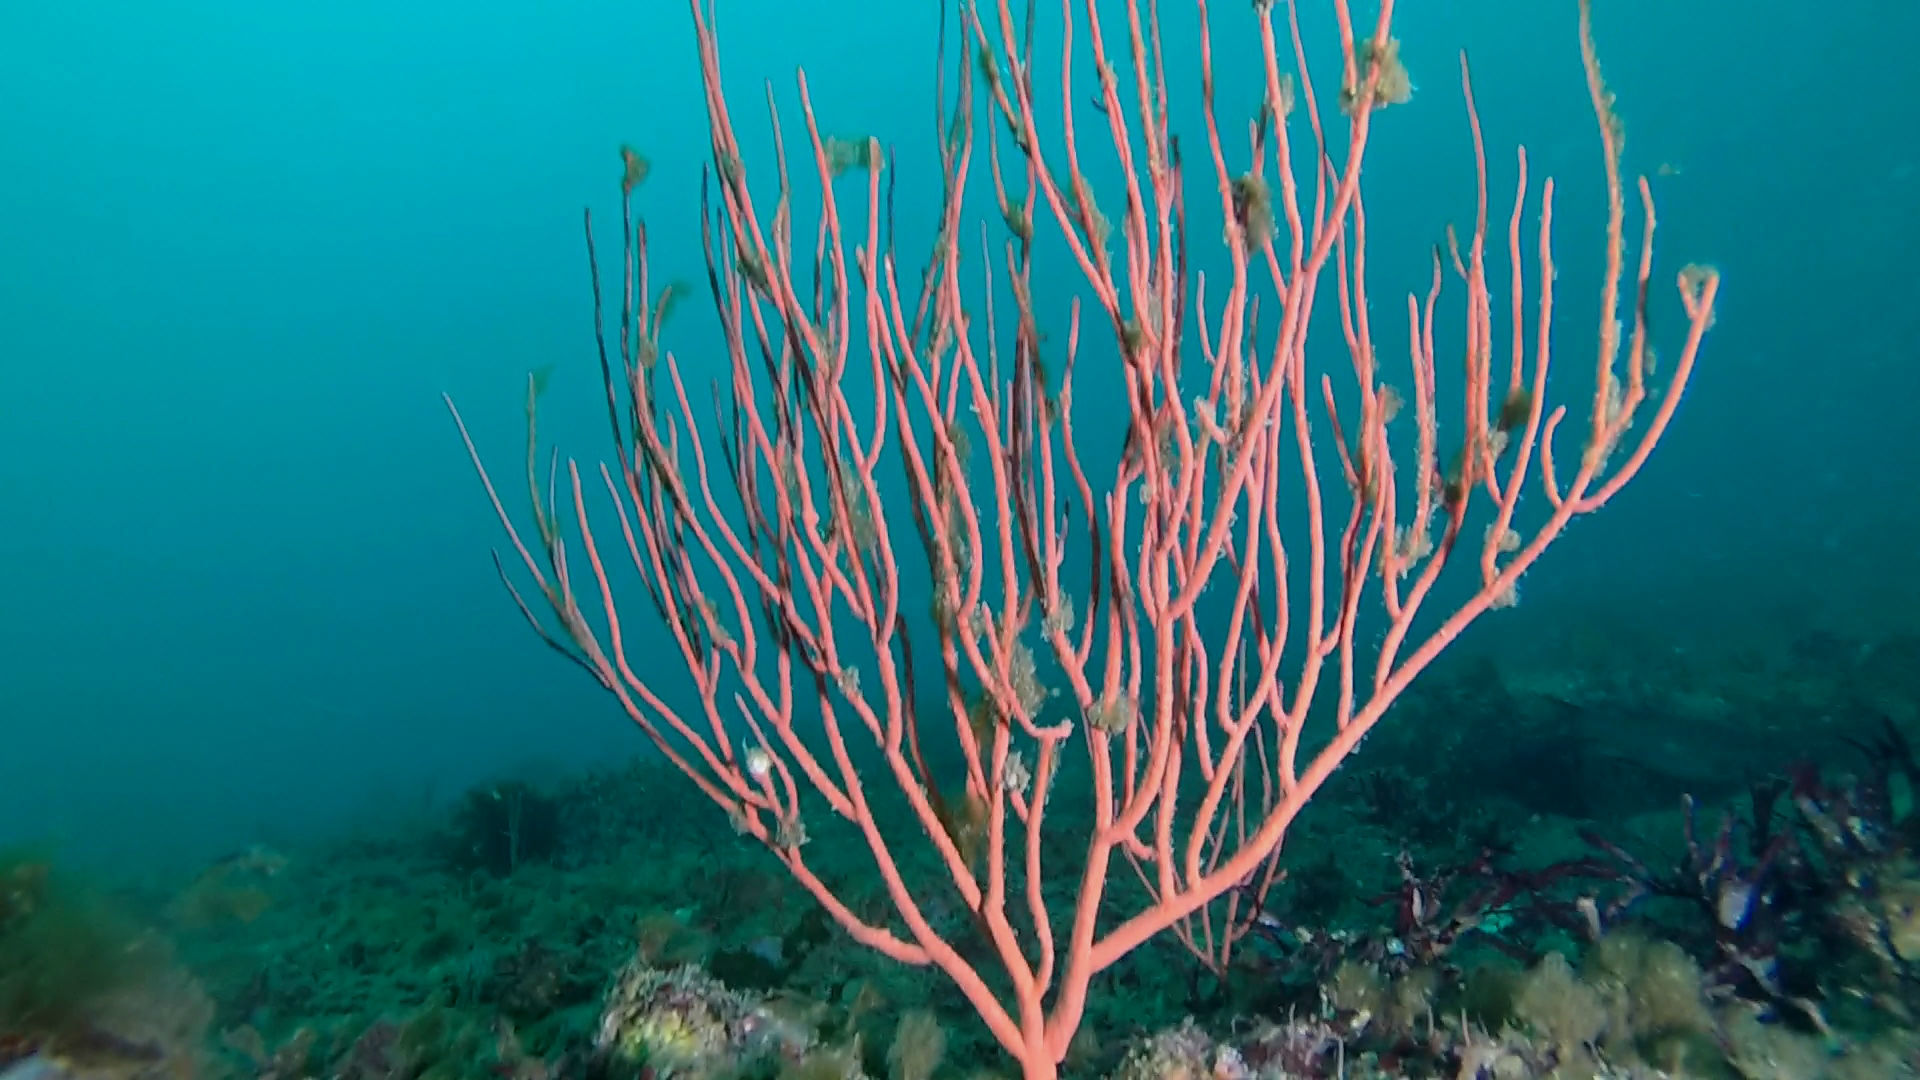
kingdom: Animalia
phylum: Cnidaria
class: Anthozoa
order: Malacalcyonacea
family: Gorgoniidae
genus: Leptogorgia
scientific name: Leptogorgia chilensis
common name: Carmine sea spray
